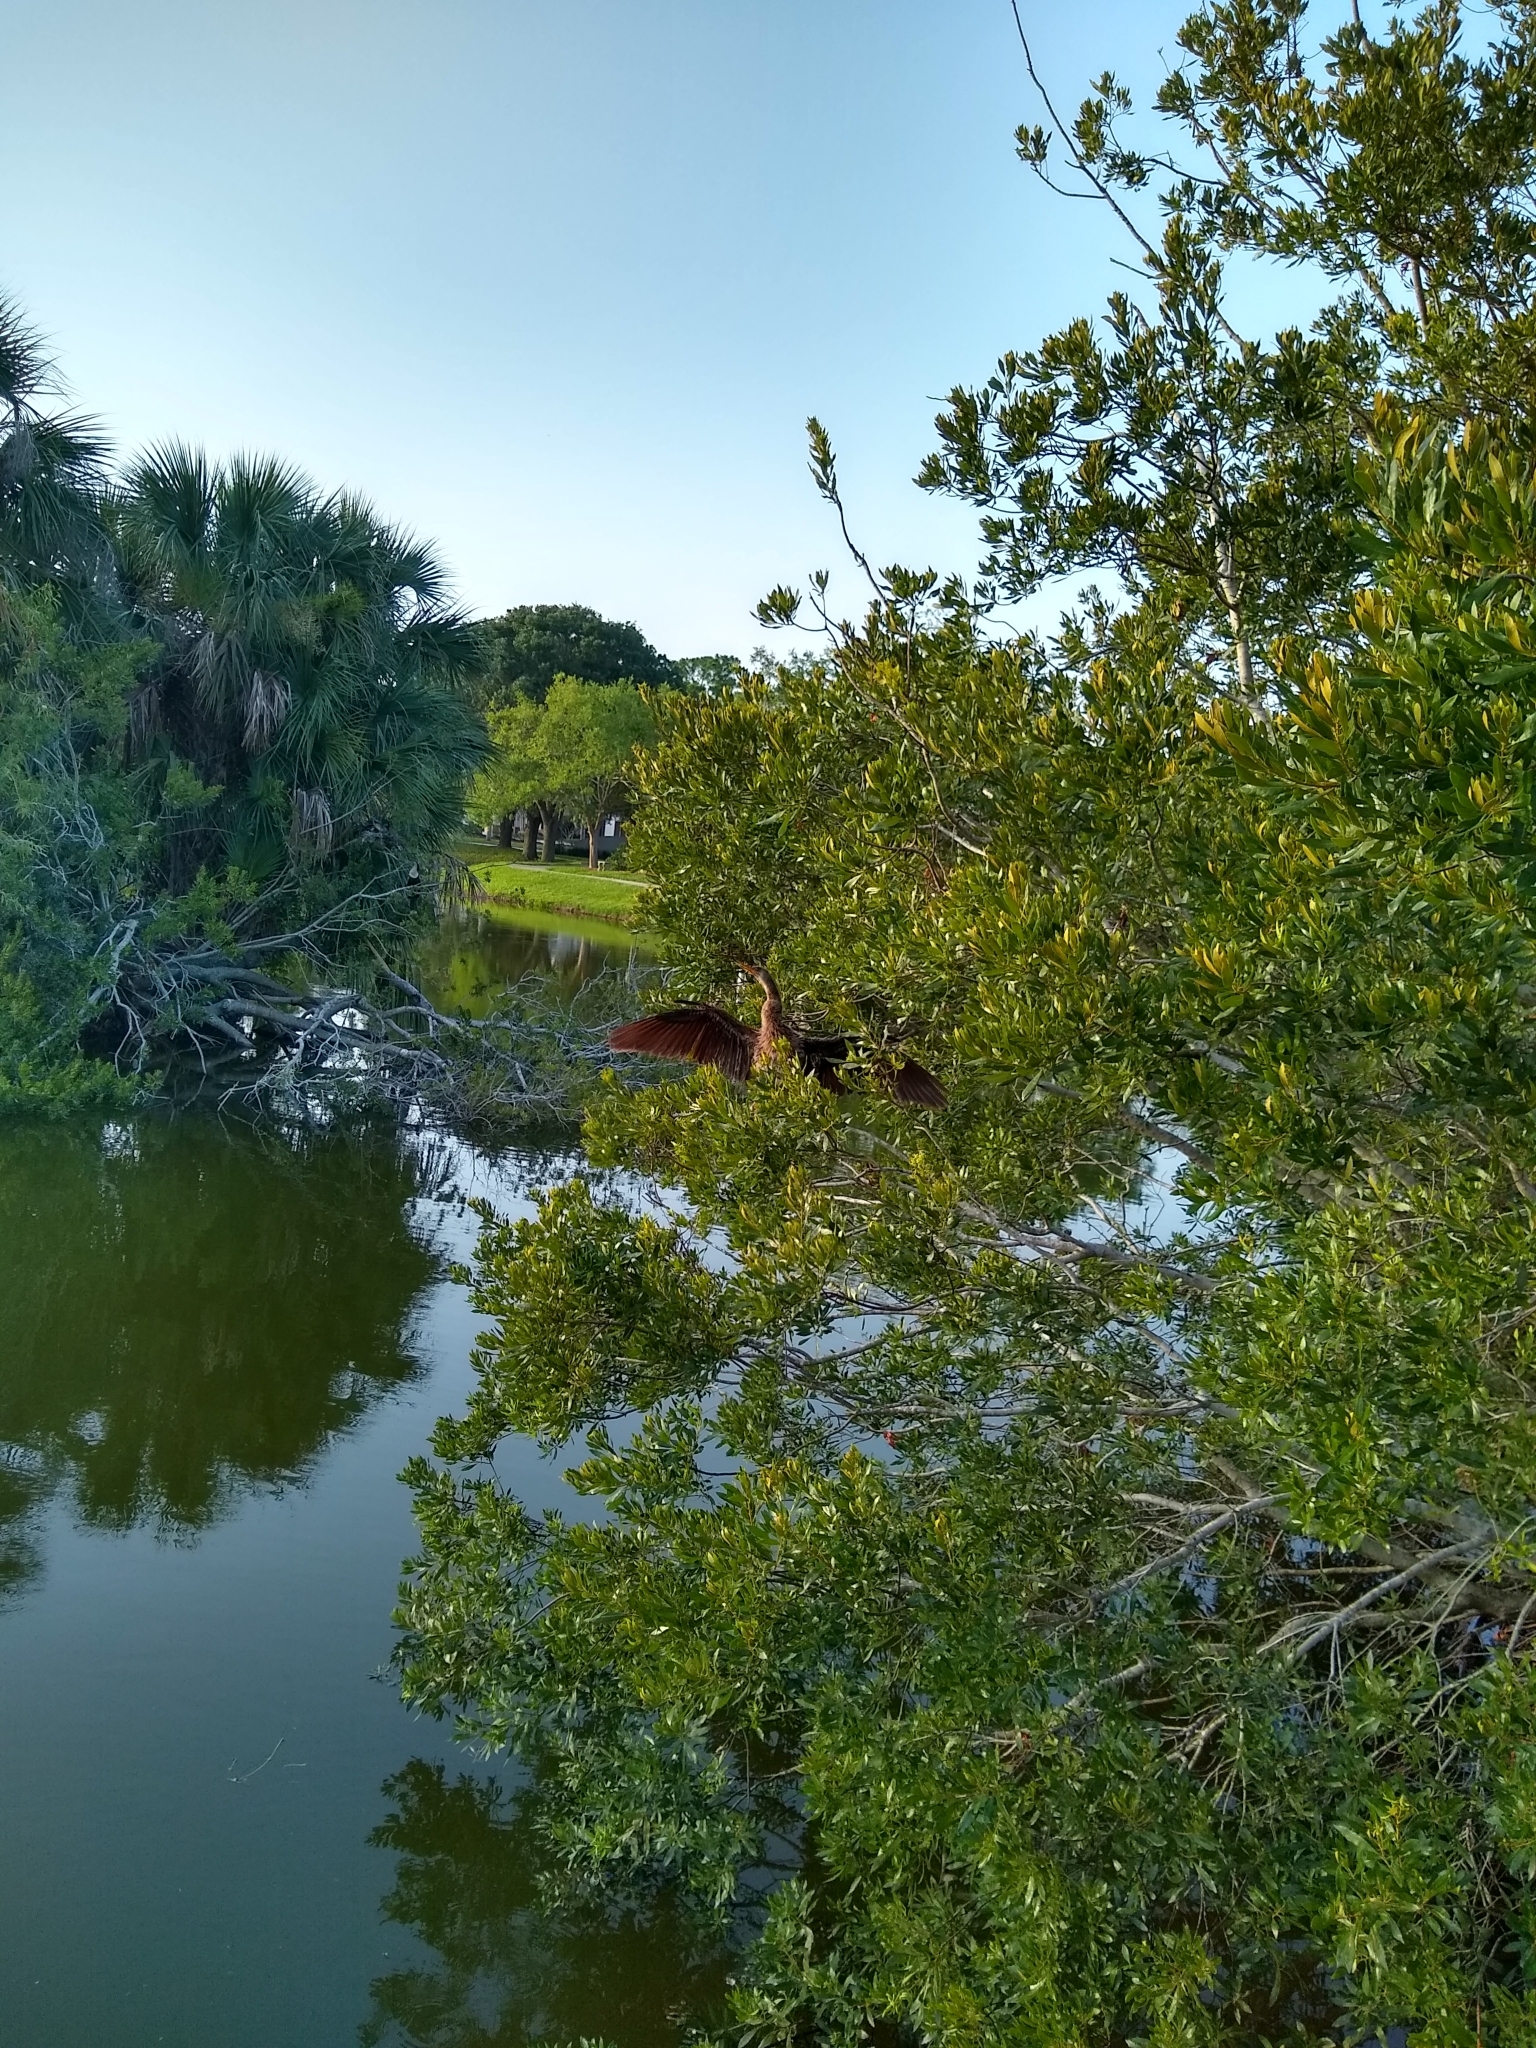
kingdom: Animalia
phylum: Chordata
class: Aves
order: Suliformes
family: Anhingidae
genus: Anhinga
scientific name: Anhinga anhinga
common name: Anhinga
